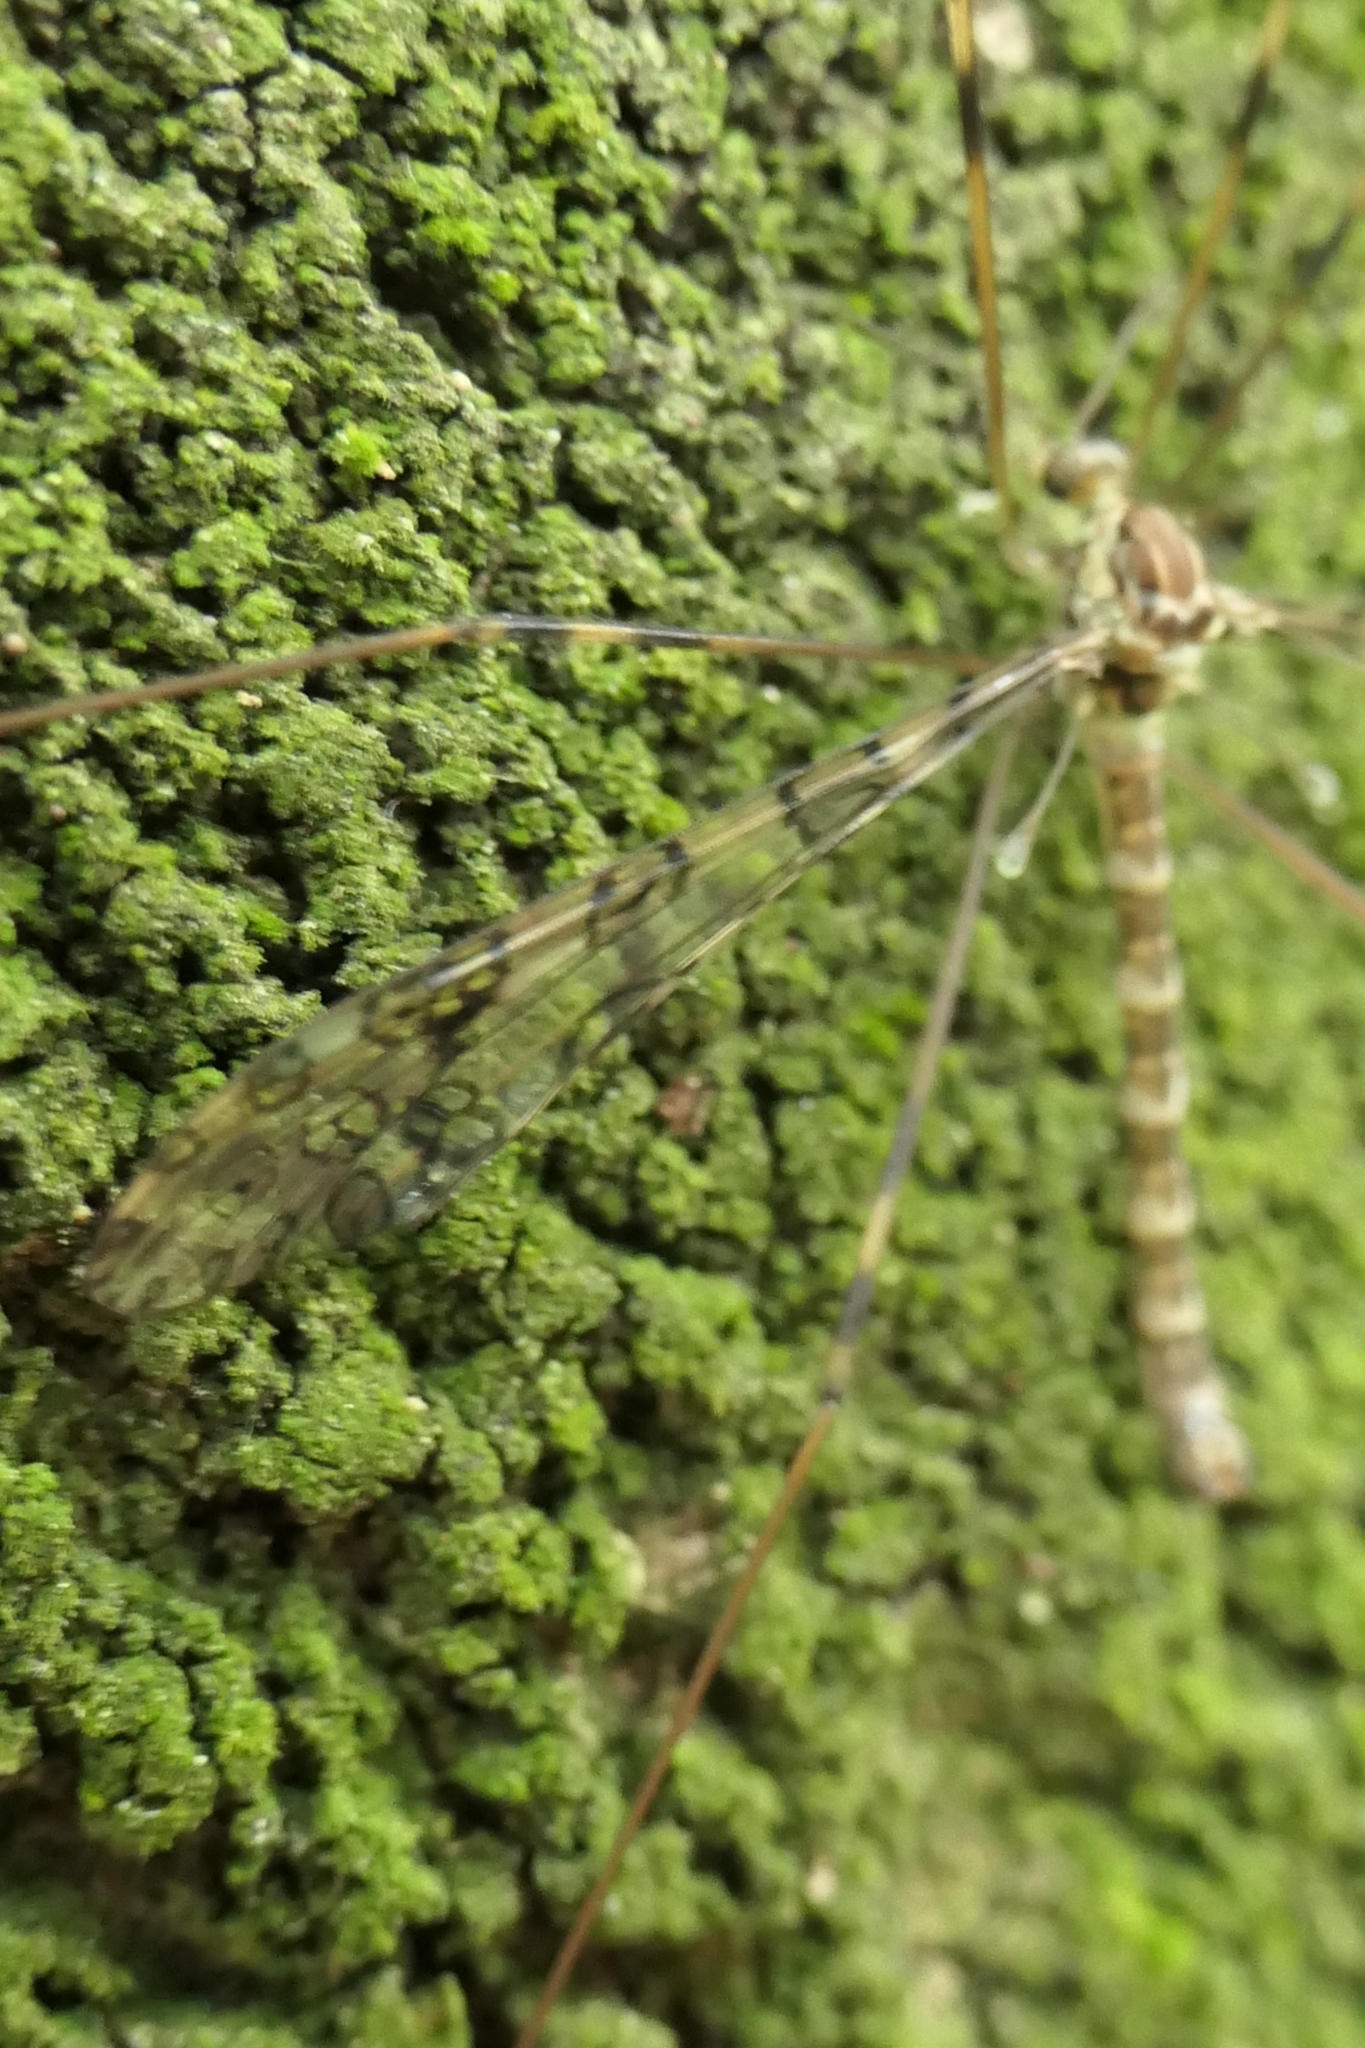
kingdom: Animalia
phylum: Arthropoda
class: Insecta
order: Diptera
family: Limoniidae
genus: Austrolimnophila
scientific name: Austrolimnophila argus
